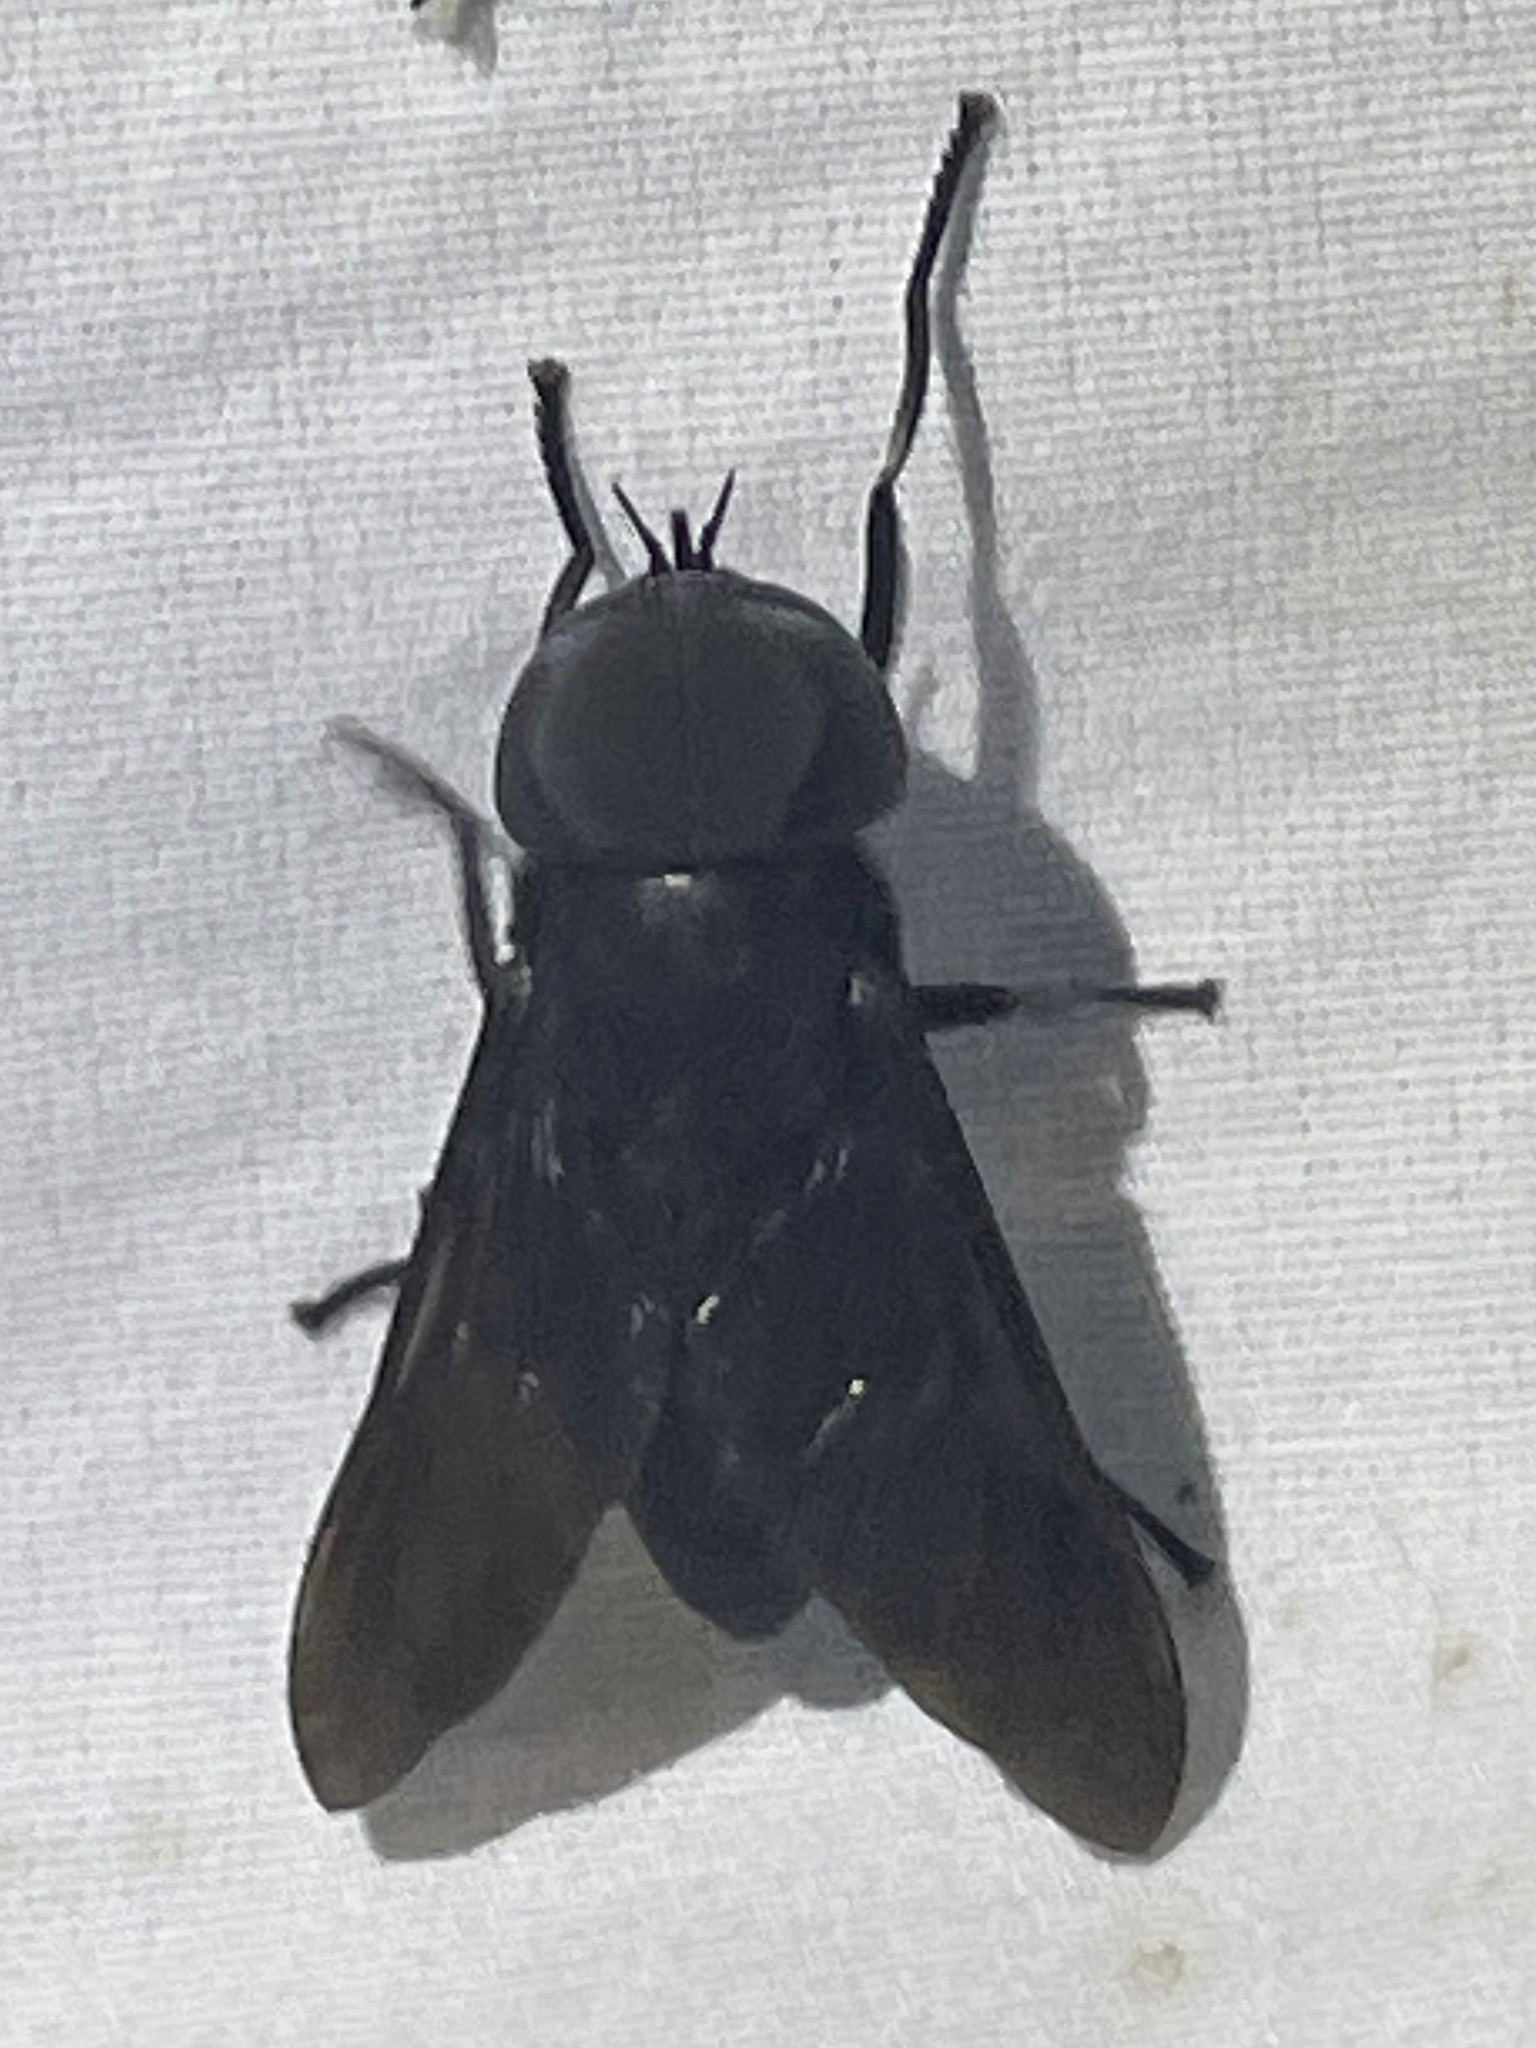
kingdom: Animalia
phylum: Arthropoda
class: Insecta
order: Diptera
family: Tabanidae
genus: Tabanus
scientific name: Tabanus atratus
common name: Black horse fly
